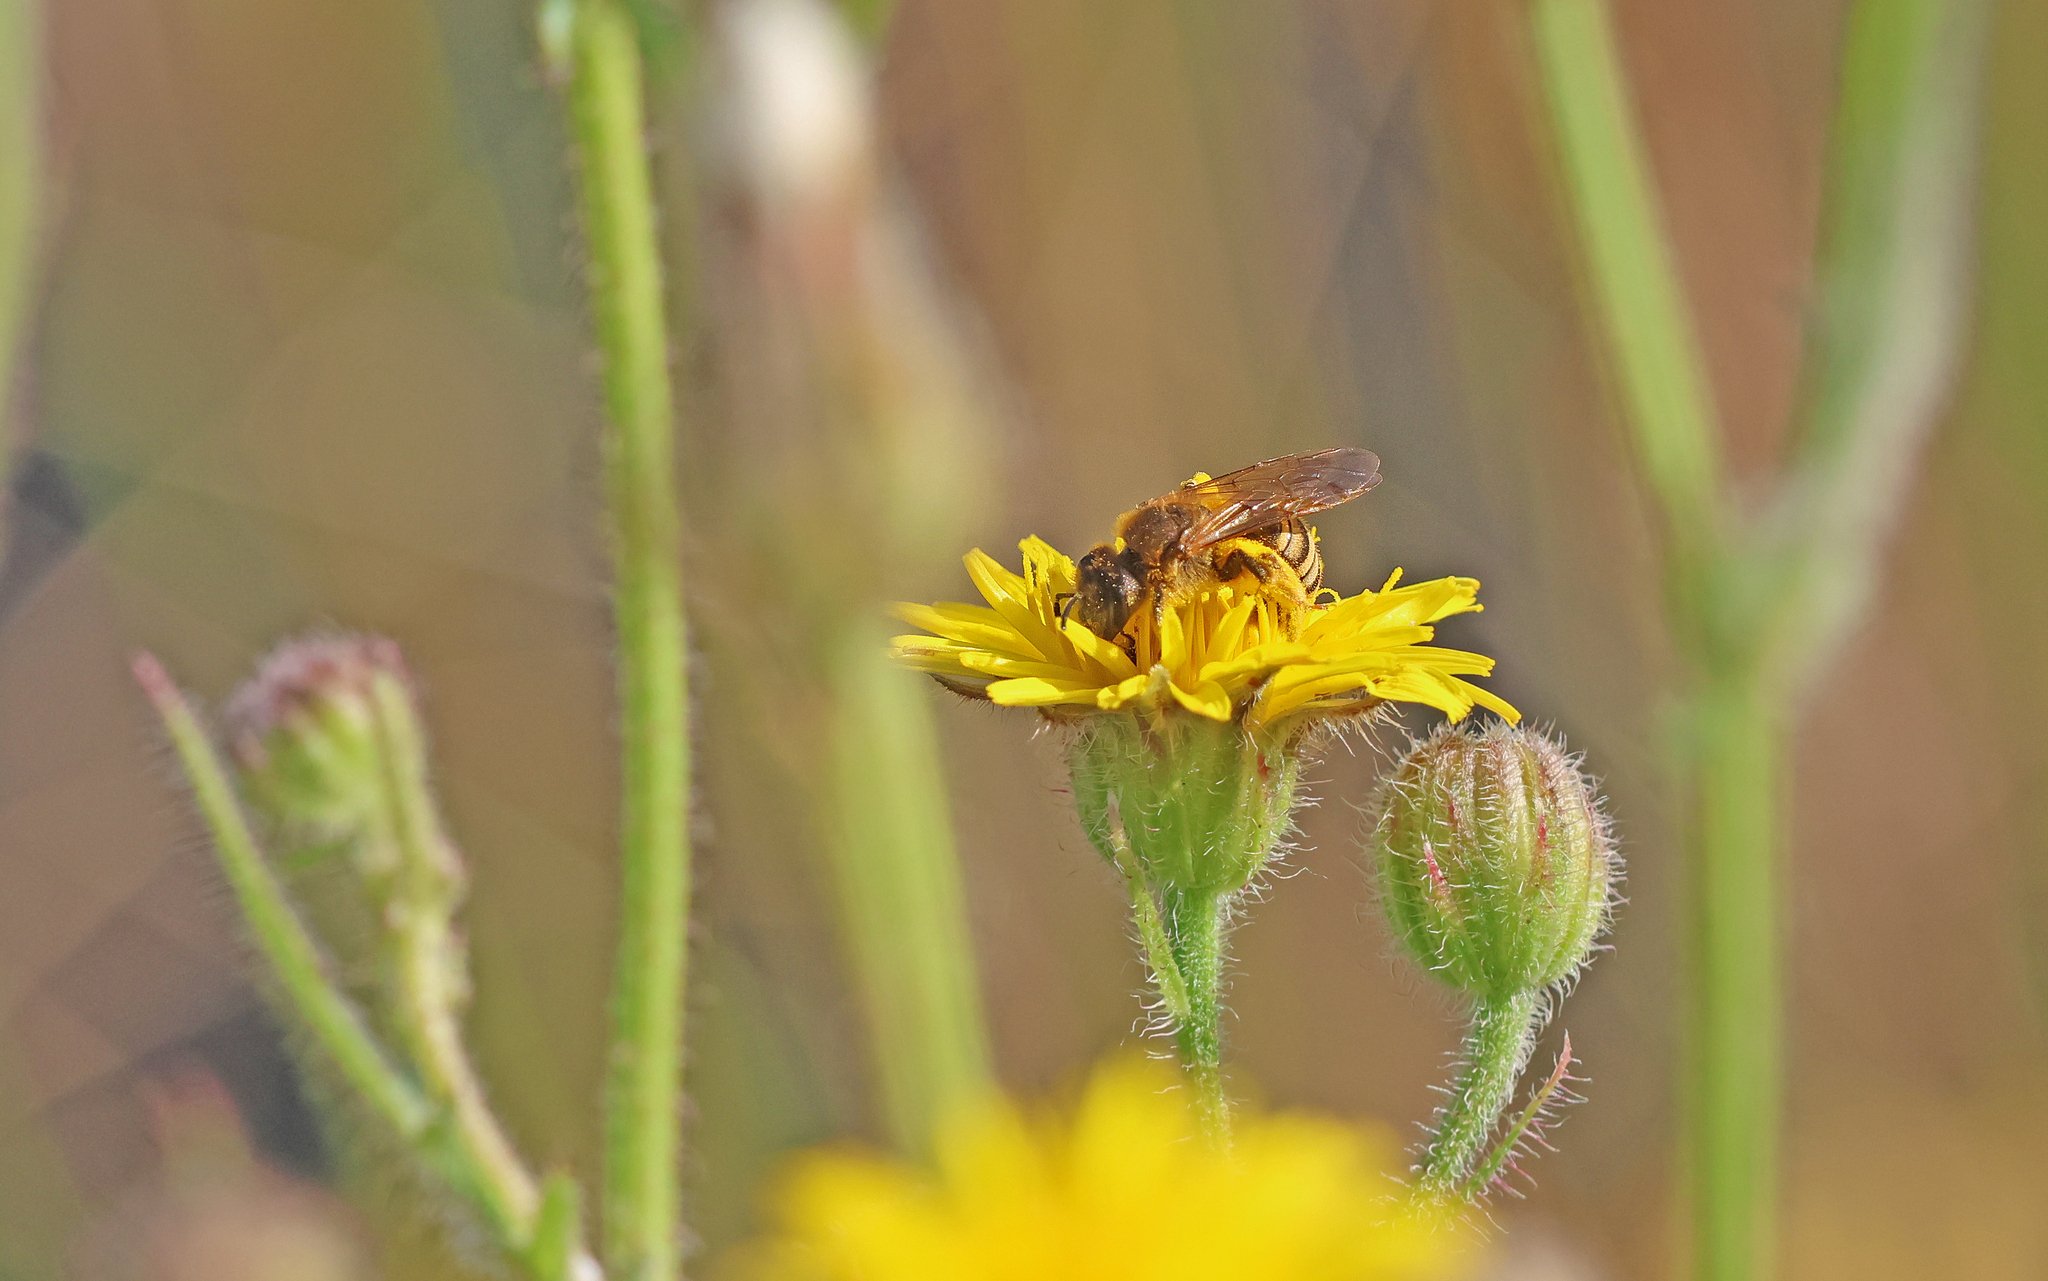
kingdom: Animalia
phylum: Arthropoda
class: Insecta
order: Hymenoptera
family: Halictidae
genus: Halictus
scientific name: Halictus scabiosae
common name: Great banded furrow bee
